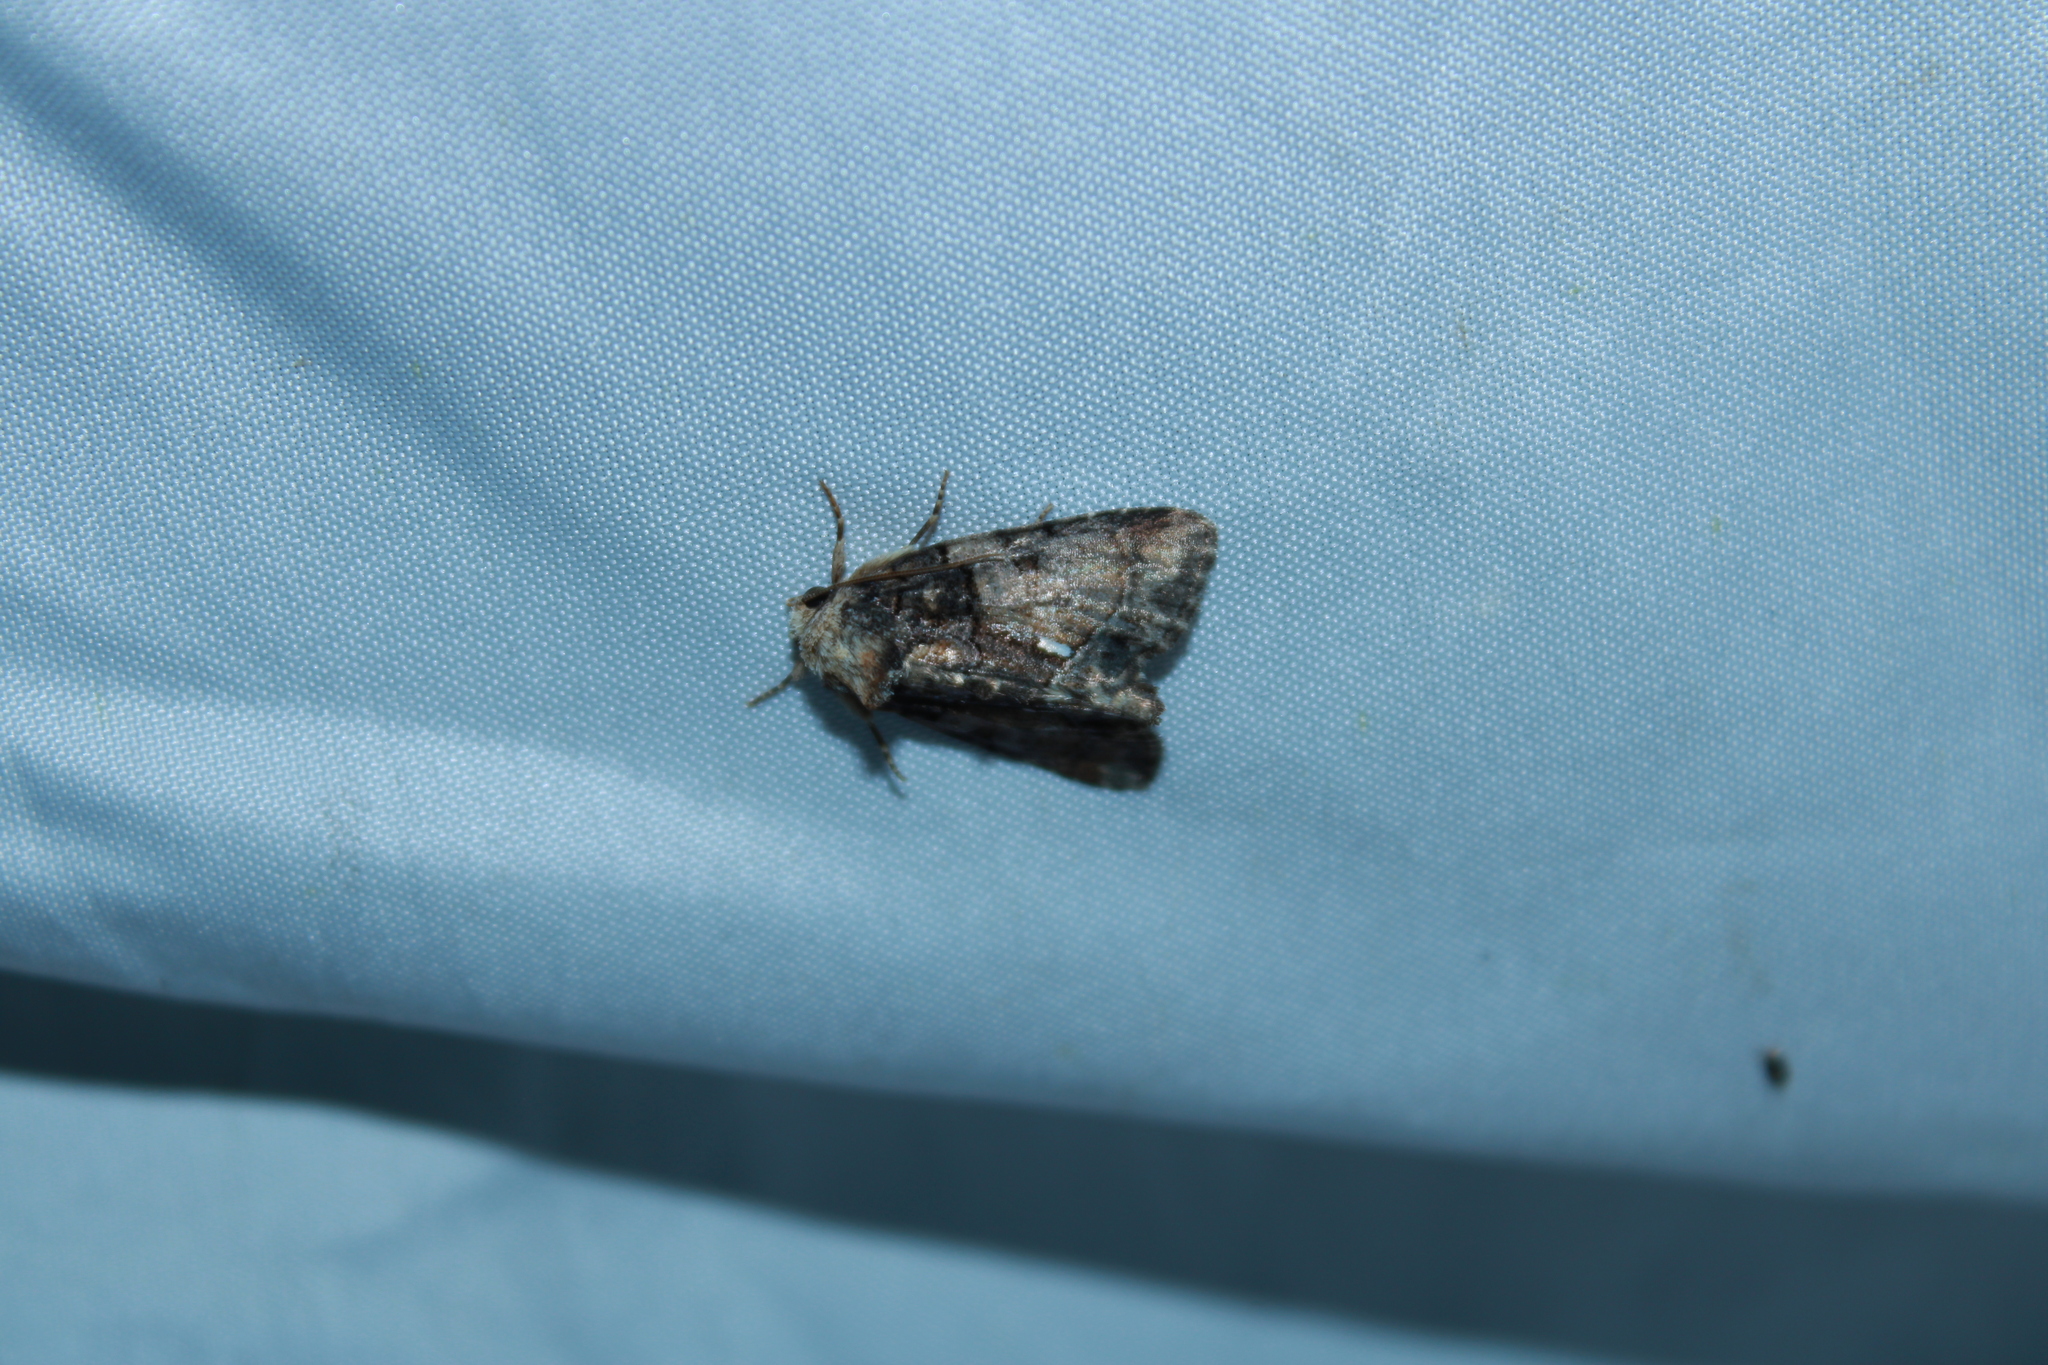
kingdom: Animalia
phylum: Arthropoda
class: Insecta
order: Lepidoptera
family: Noctuidae
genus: Chytonix
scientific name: Chytonix palliatricula
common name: Cloaked marvel
